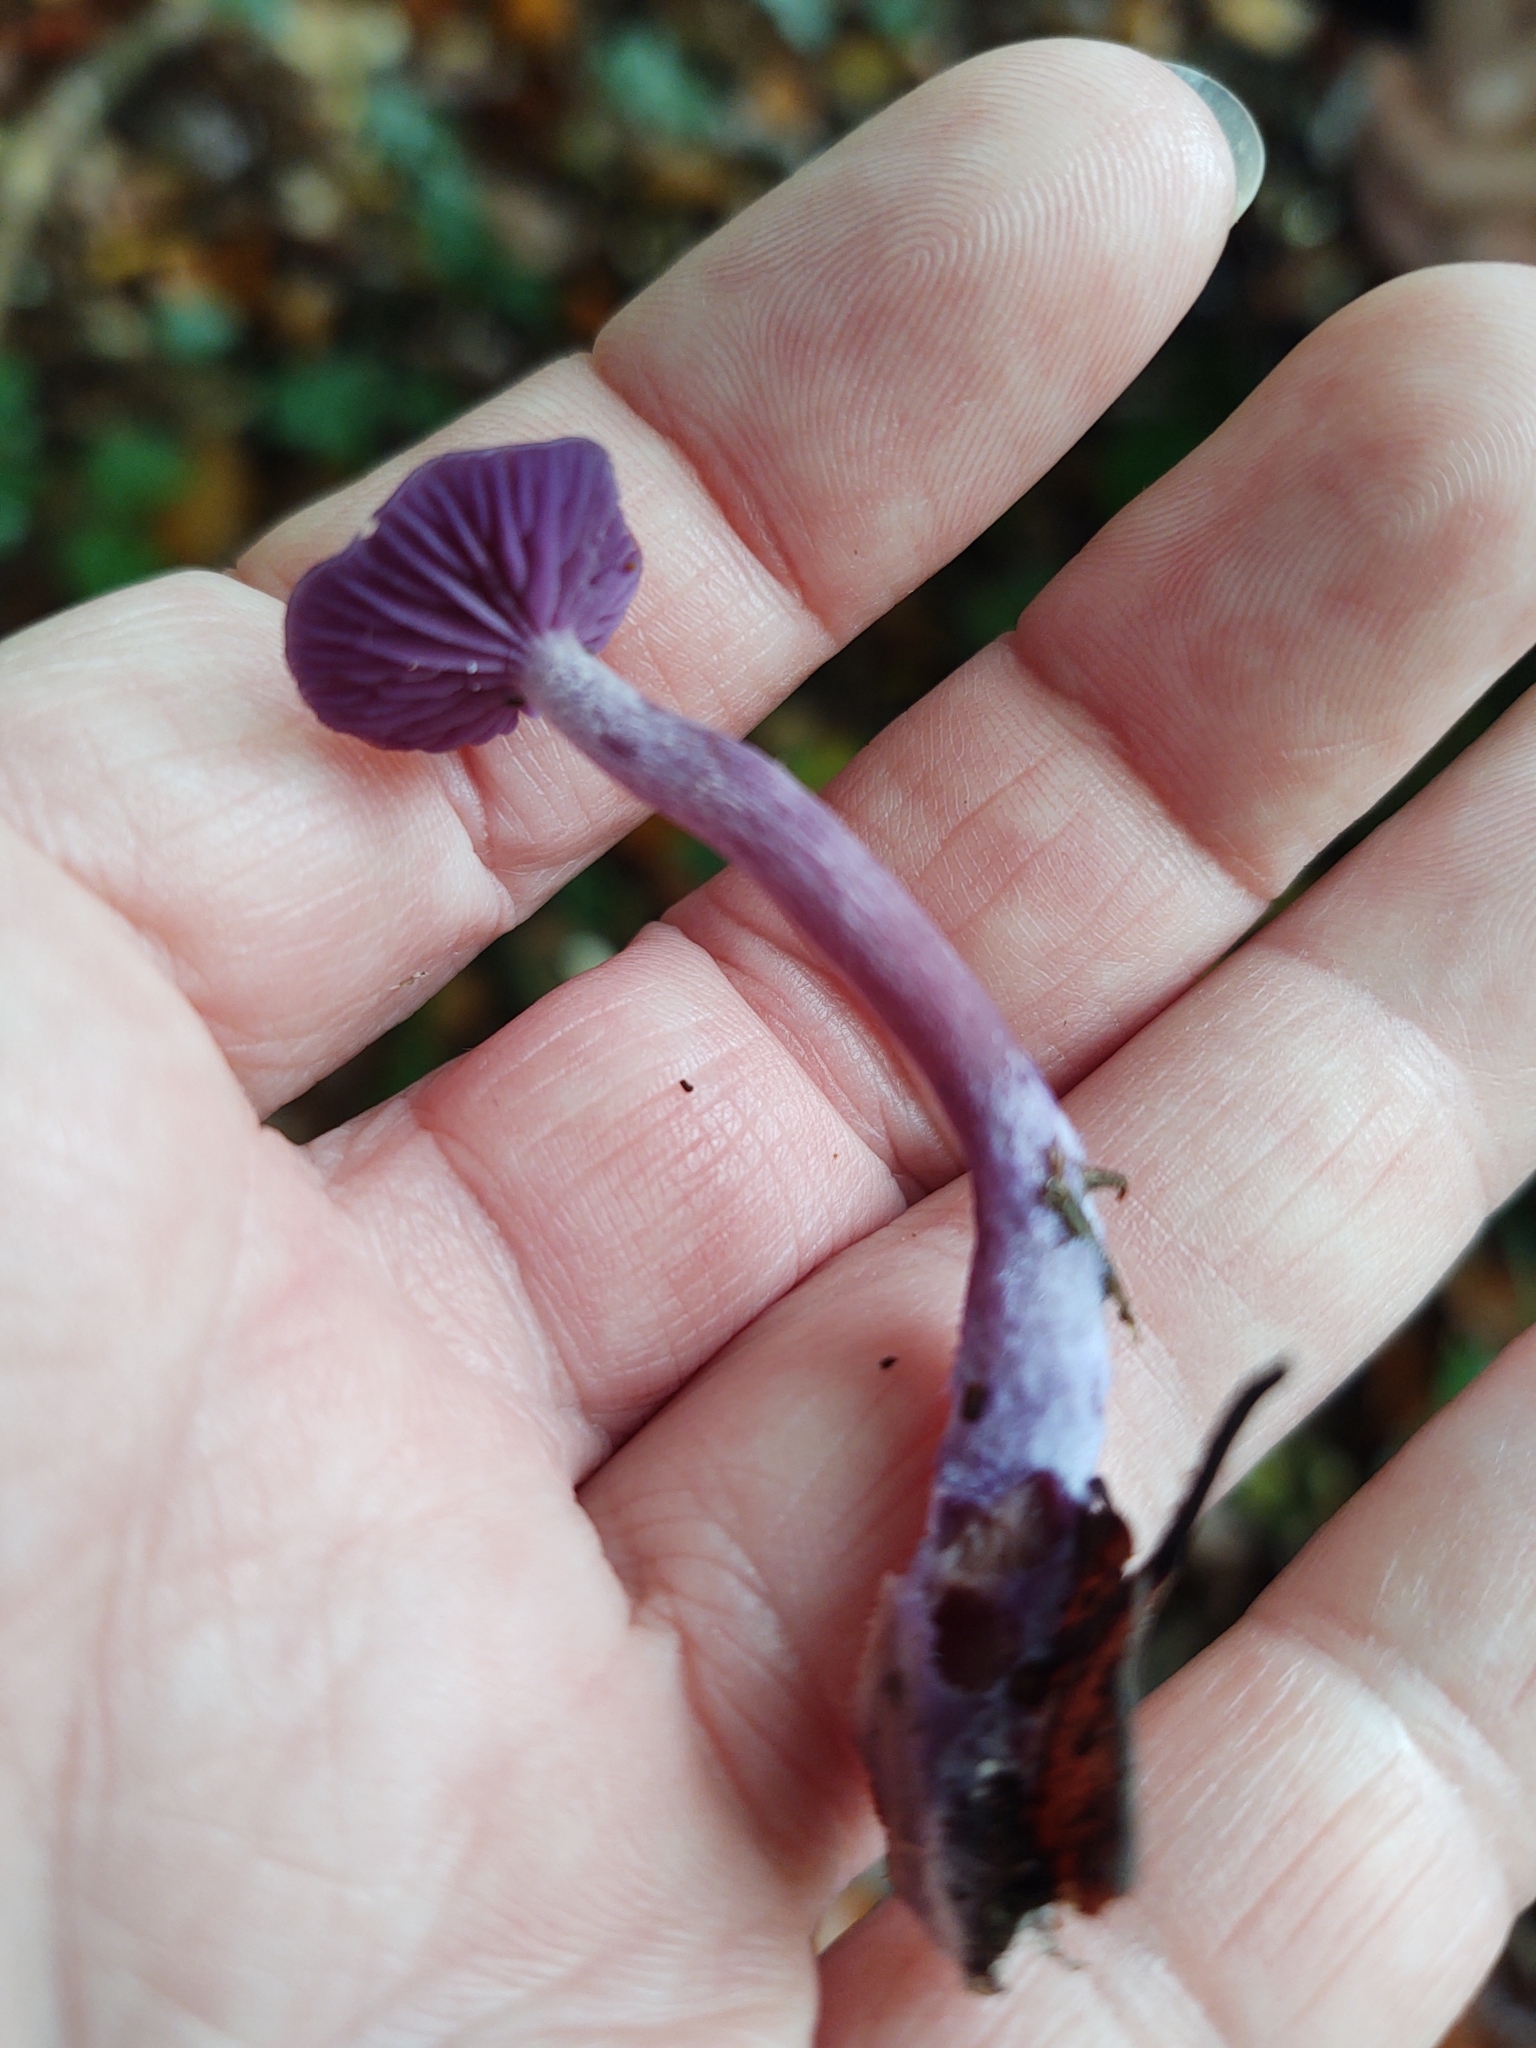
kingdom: Fungi
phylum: Basidiomycota
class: Agaricomycetes
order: Agaricales
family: Hydnangiaceae
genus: Laccaria
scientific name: Laccaria amethystina
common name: Amethyst deceiver
